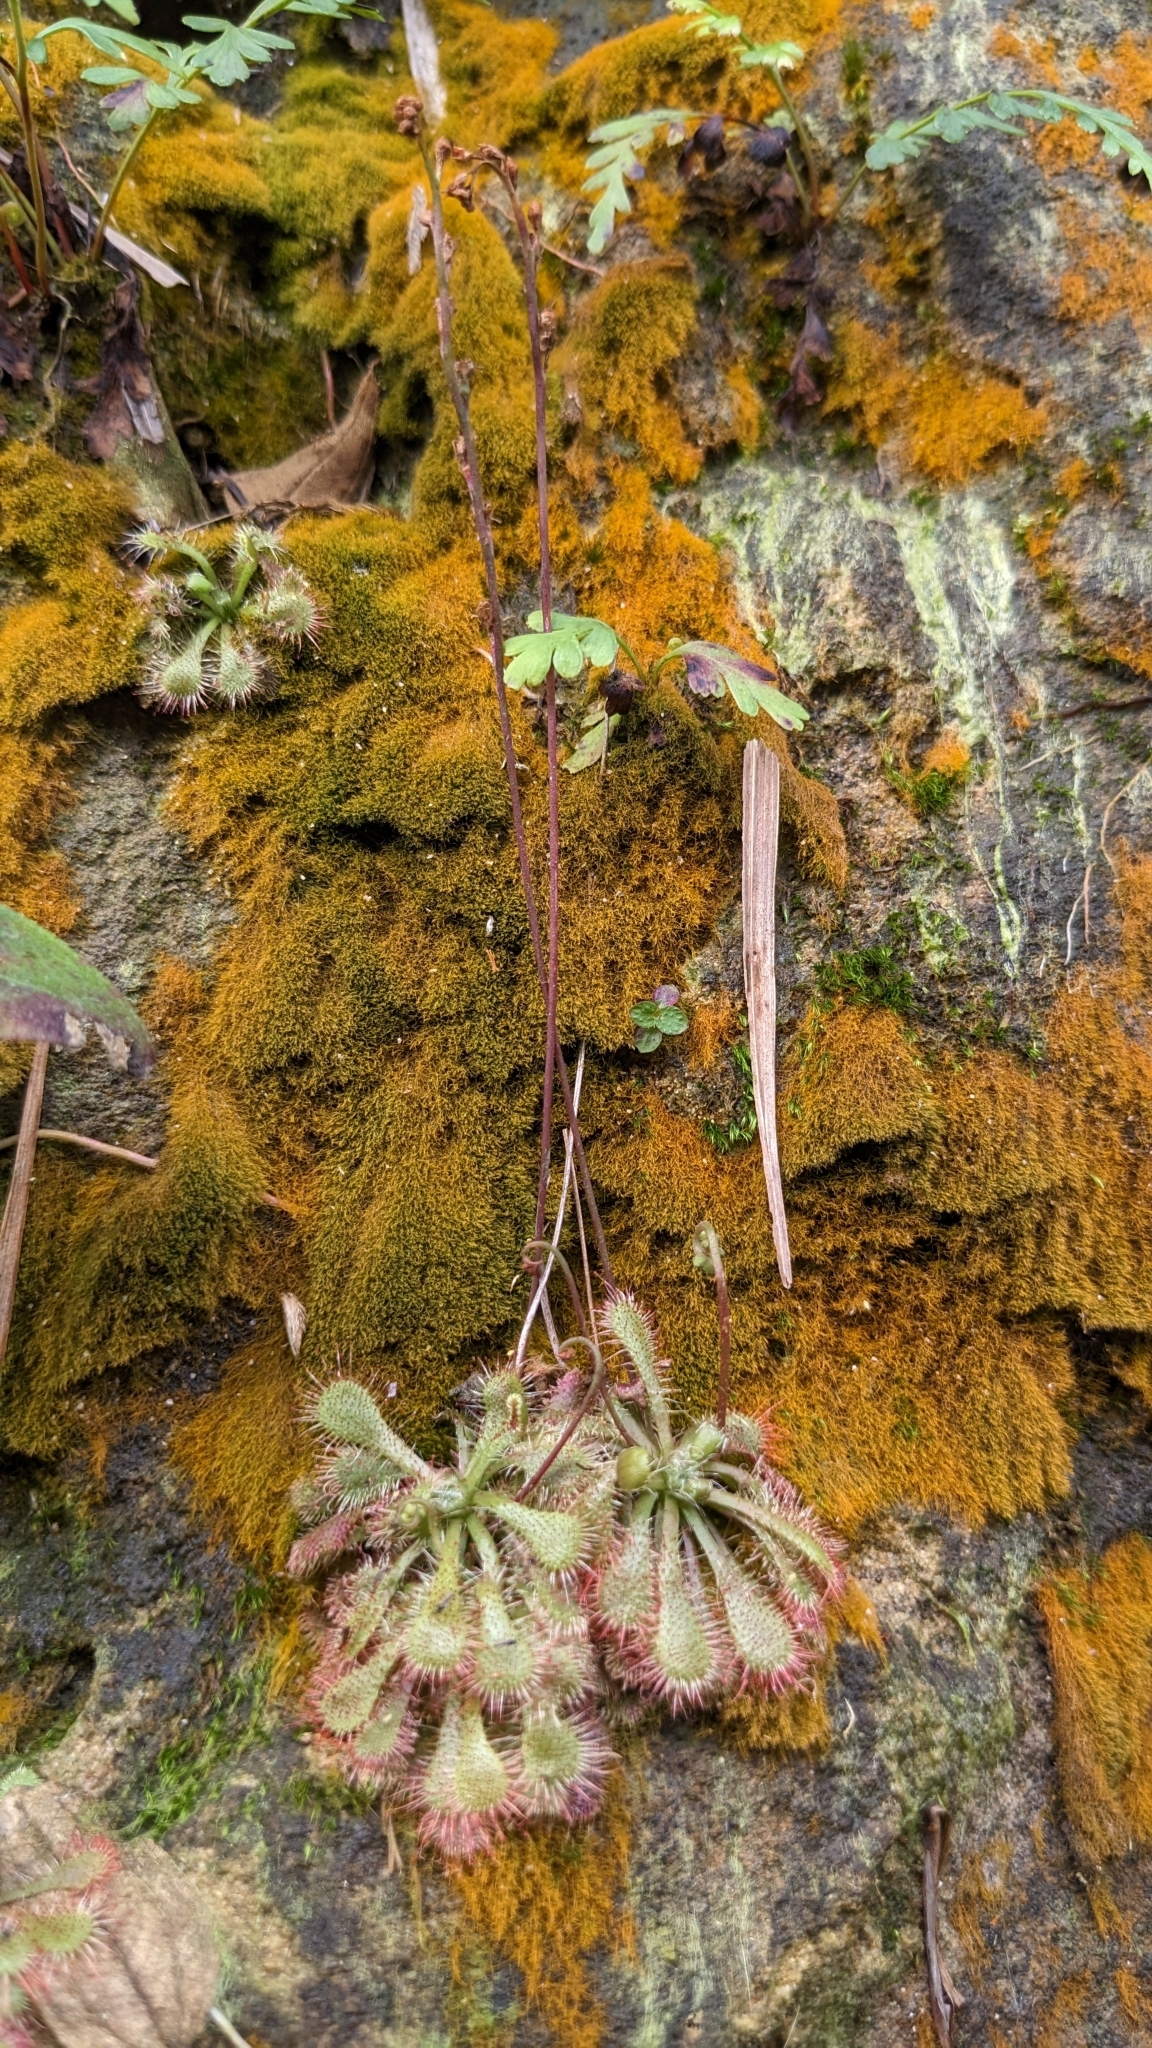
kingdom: Plantae
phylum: Tracheophyta
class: Magnoliopsida
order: Caryophyllales
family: Droseraceae
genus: Drosera
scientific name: Drosera spatulata
